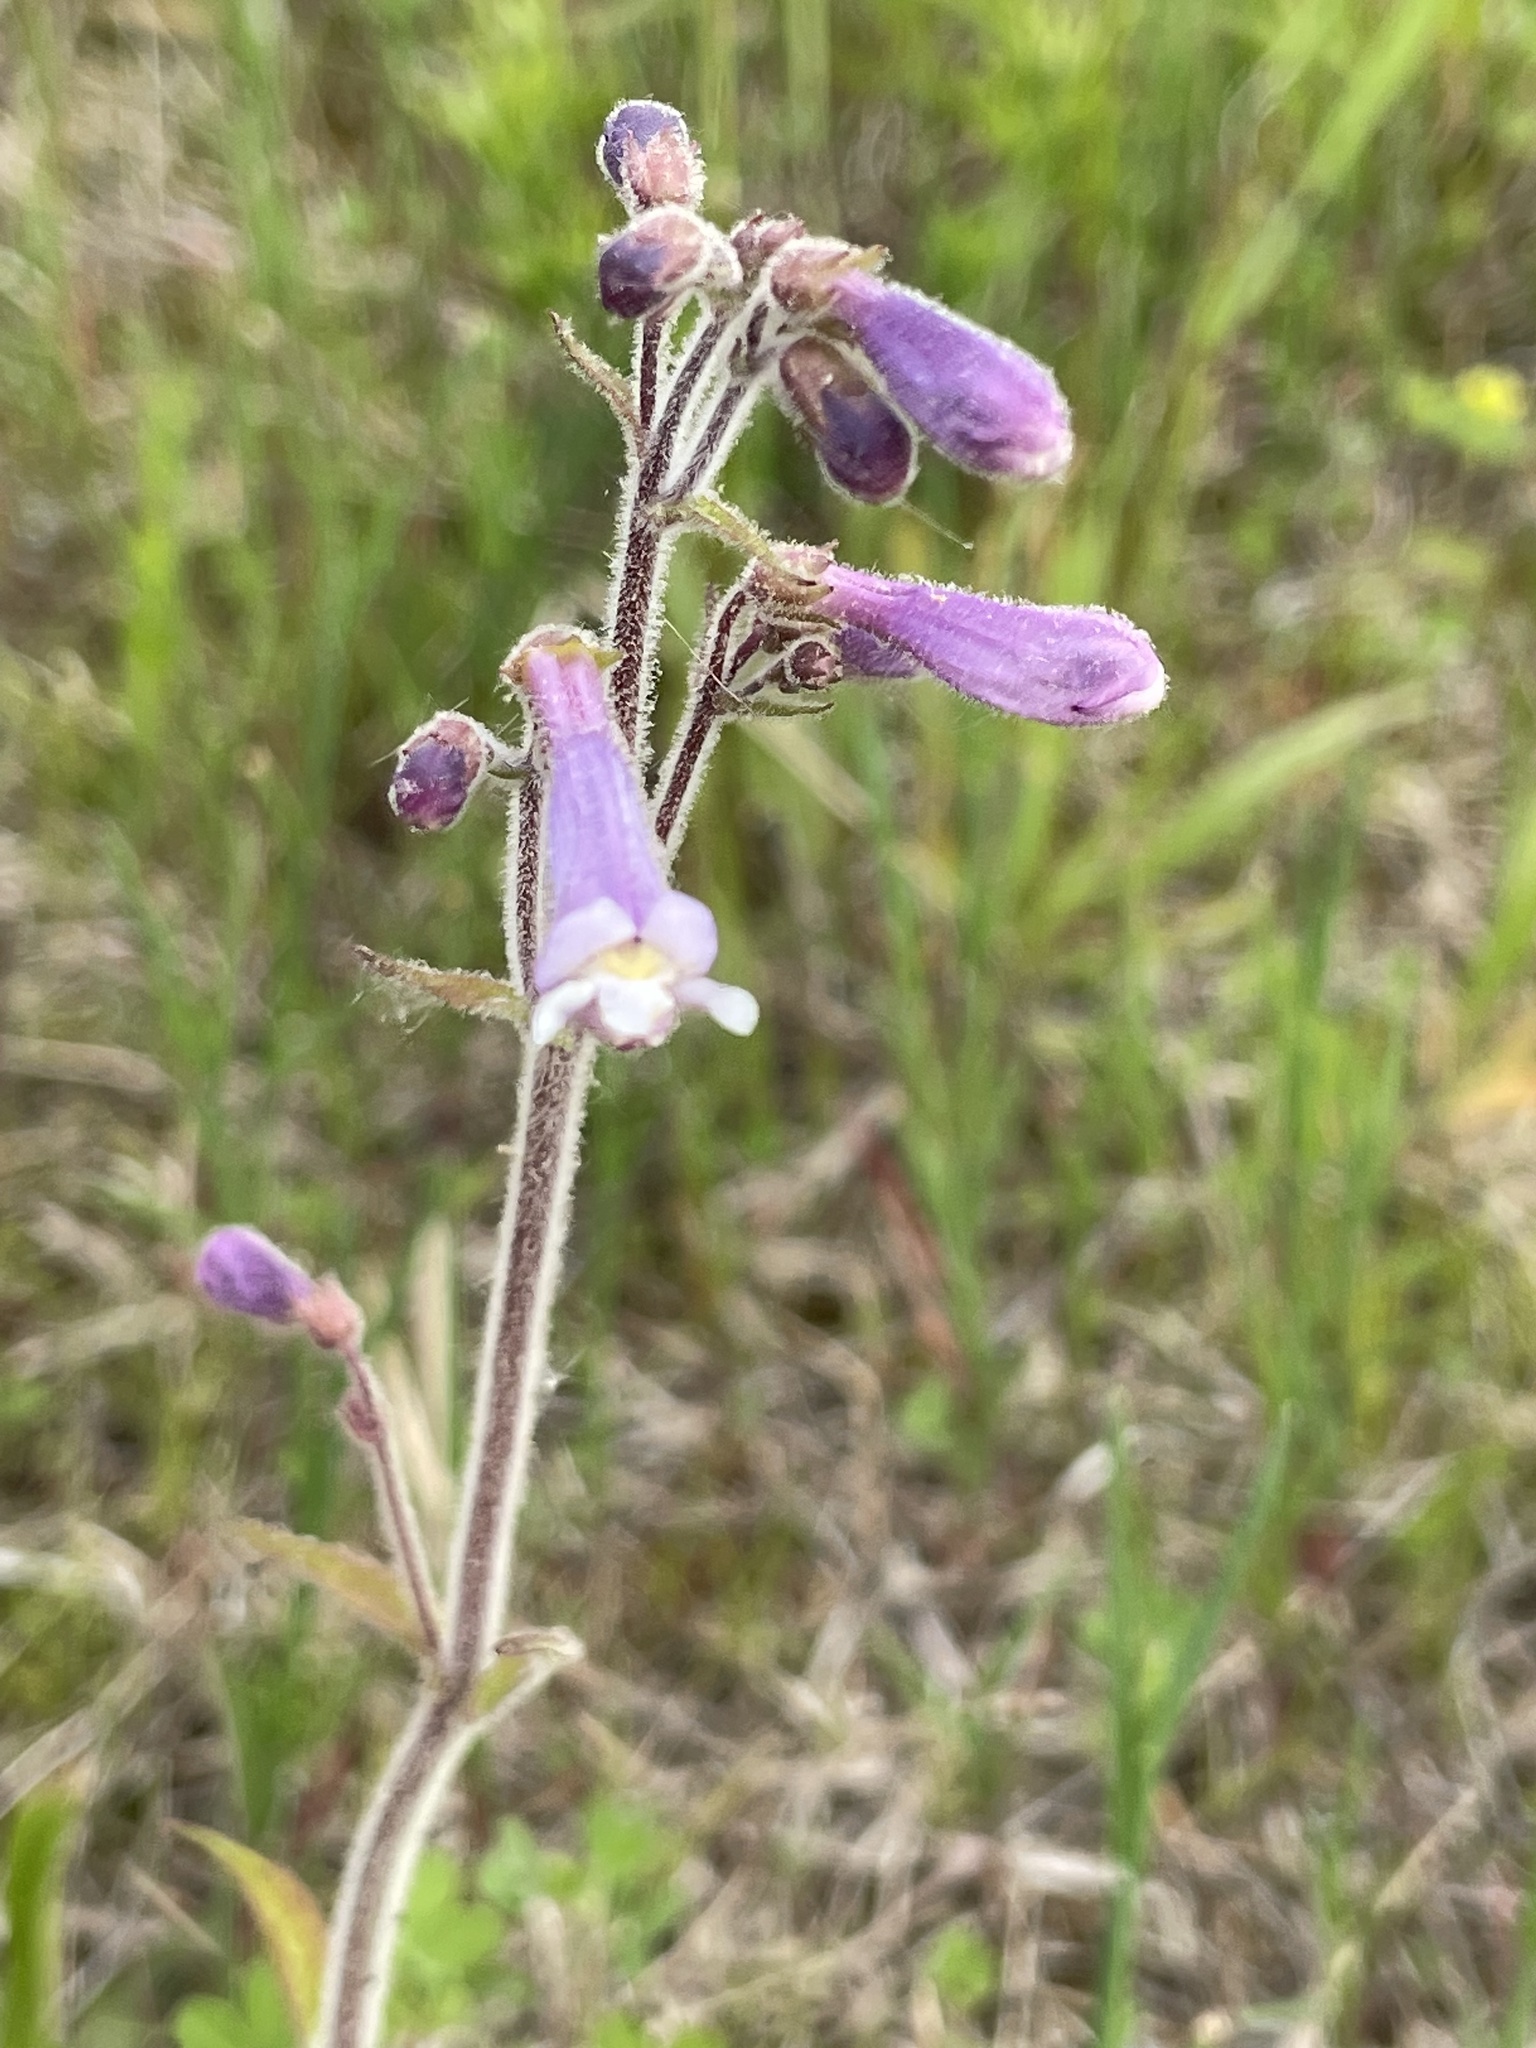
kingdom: Plantae
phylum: Tracheophyta
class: Magnoliopsida
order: Lamiales
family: Plantaginaceae
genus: Penstemon
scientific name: Penstemon hirsutus
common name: Hairy beardtongue
